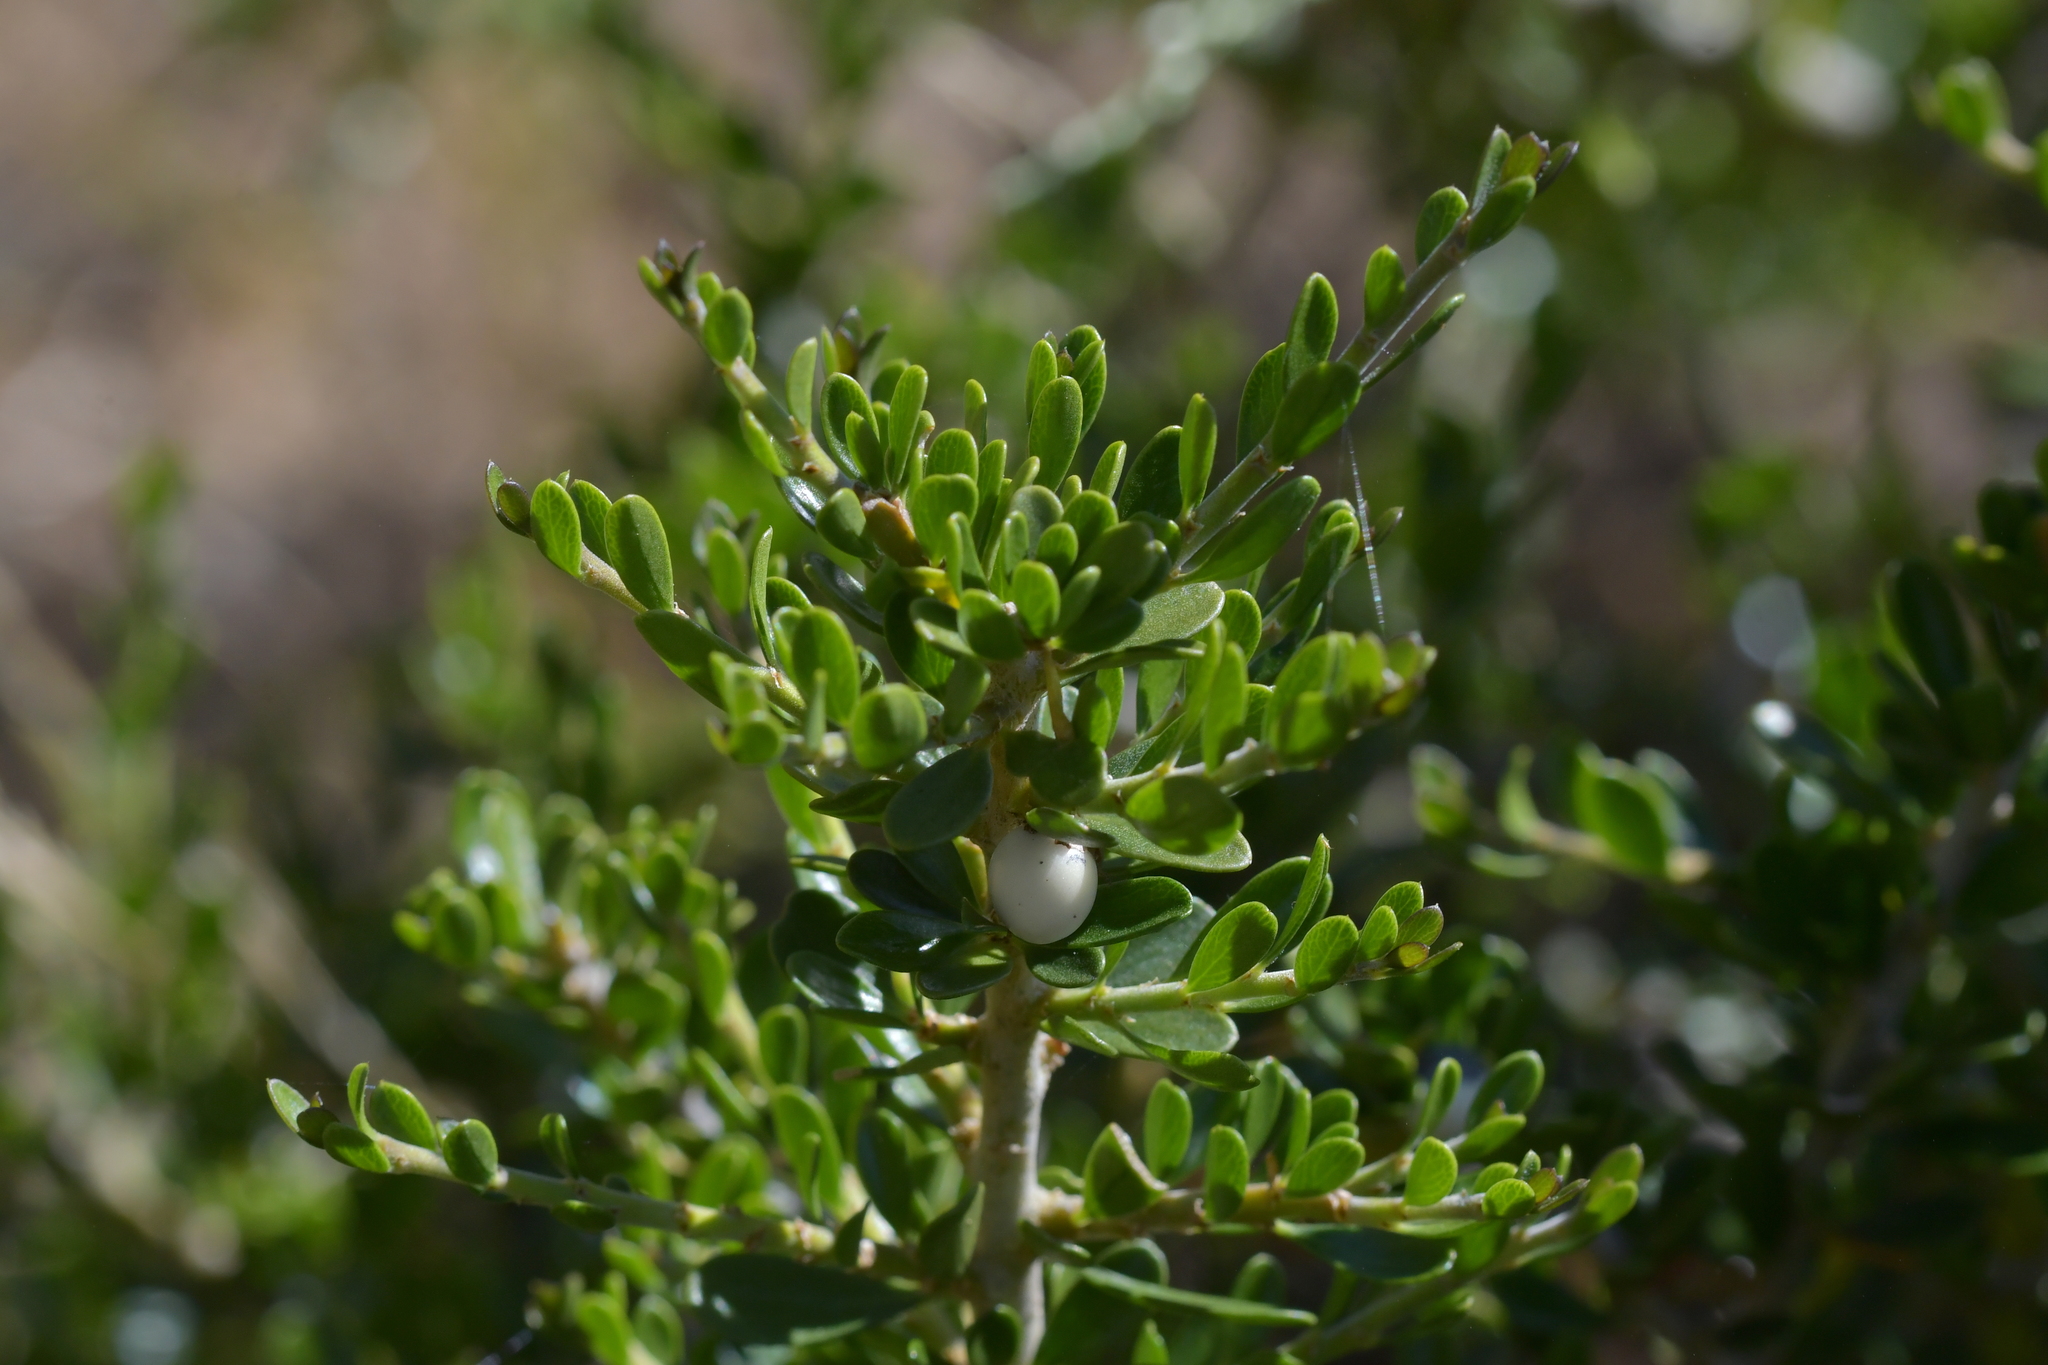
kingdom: Plantae
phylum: Tracheophyta
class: Magnoliopsida
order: Malpighiales
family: Violaceae
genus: Melicytus
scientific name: Melicytus crassifolius
